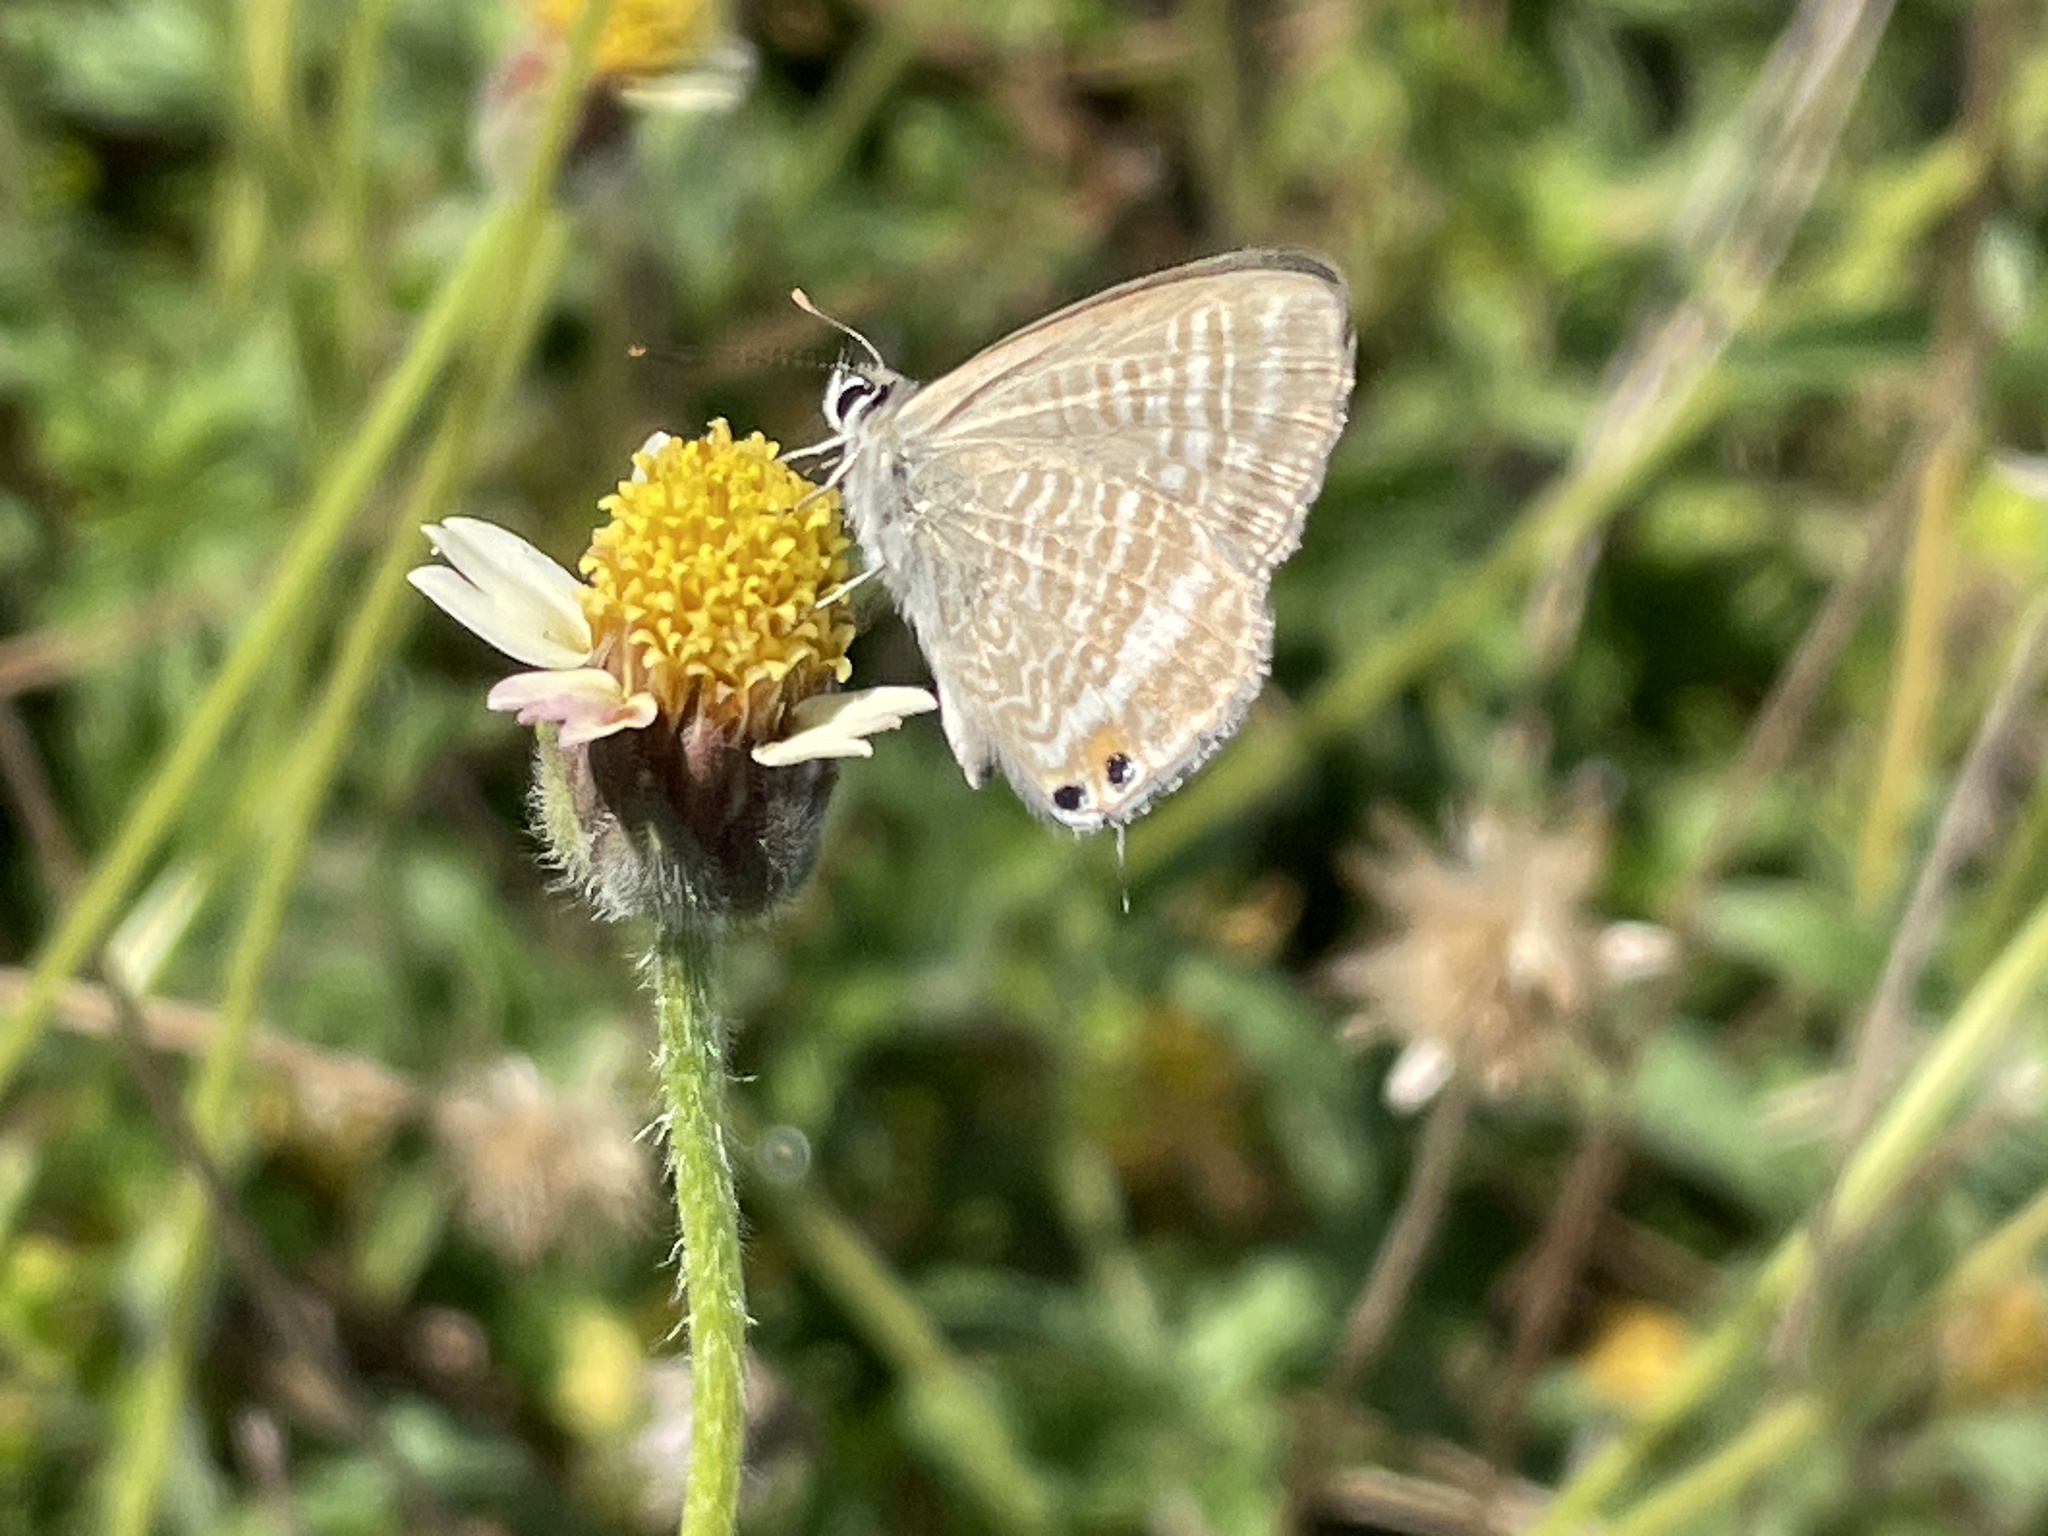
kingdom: Animalia
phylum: Arthropoda
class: Insecta
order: Lepidoptera
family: Lycaenidae
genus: Lampides
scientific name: Lampides boeticus
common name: Long-tailed blue
